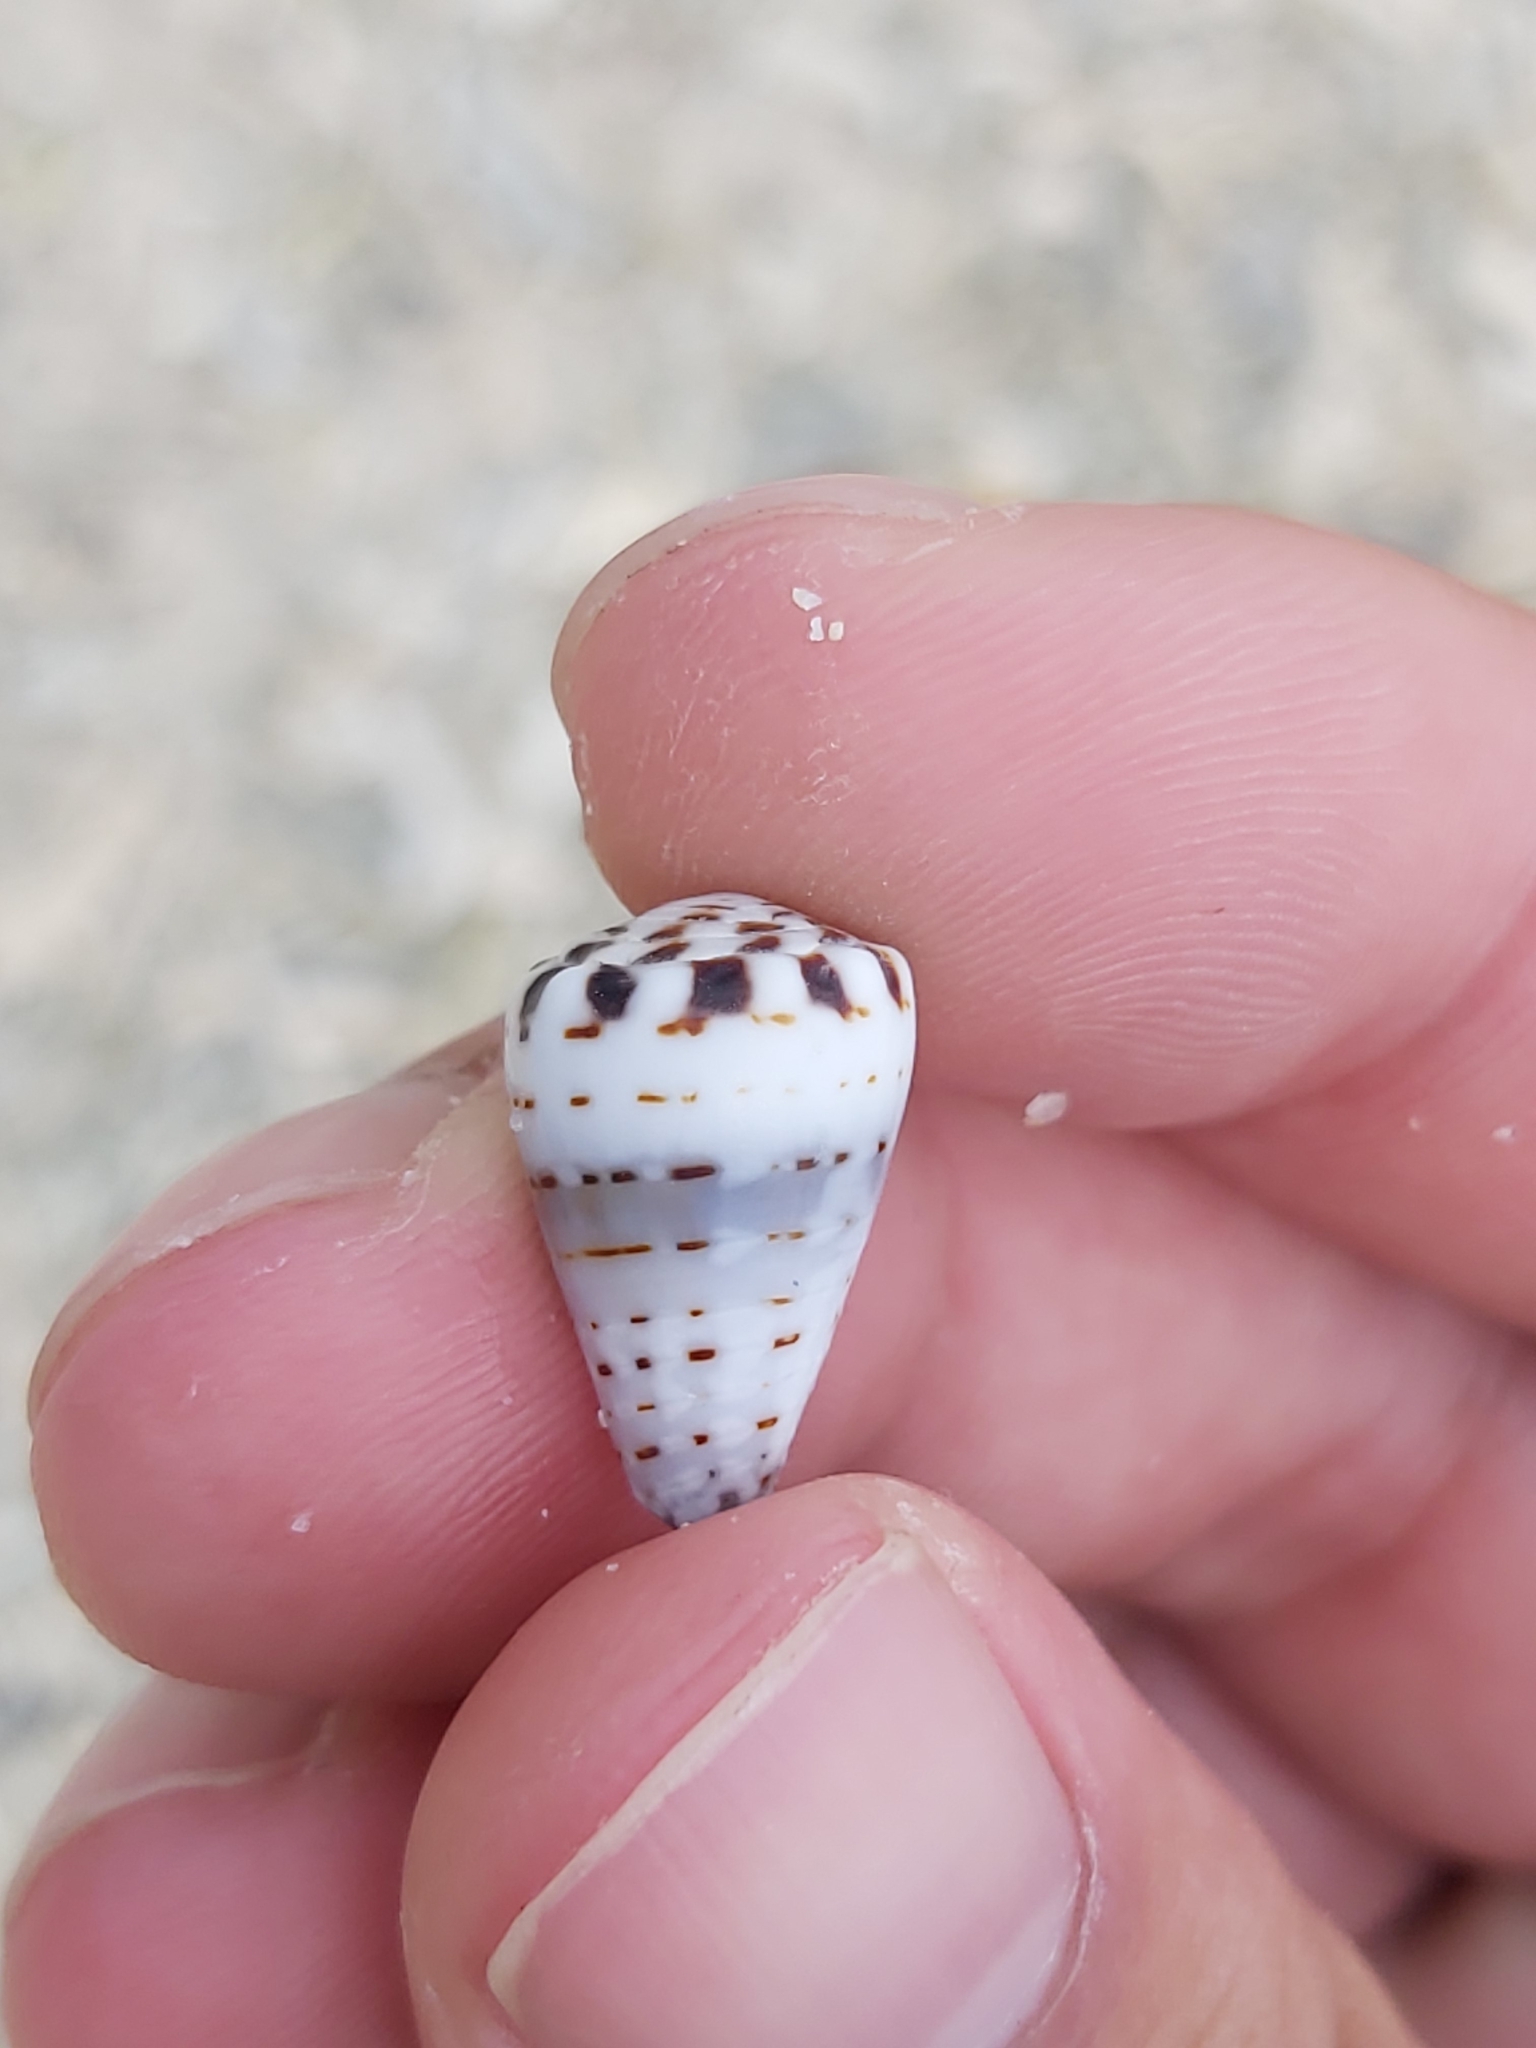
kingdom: Animalia
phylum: Mollusca
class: Gastropoda
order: Neogastropoda
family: Conidae
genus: Conus
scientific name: Conus musicus
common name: Music cone
